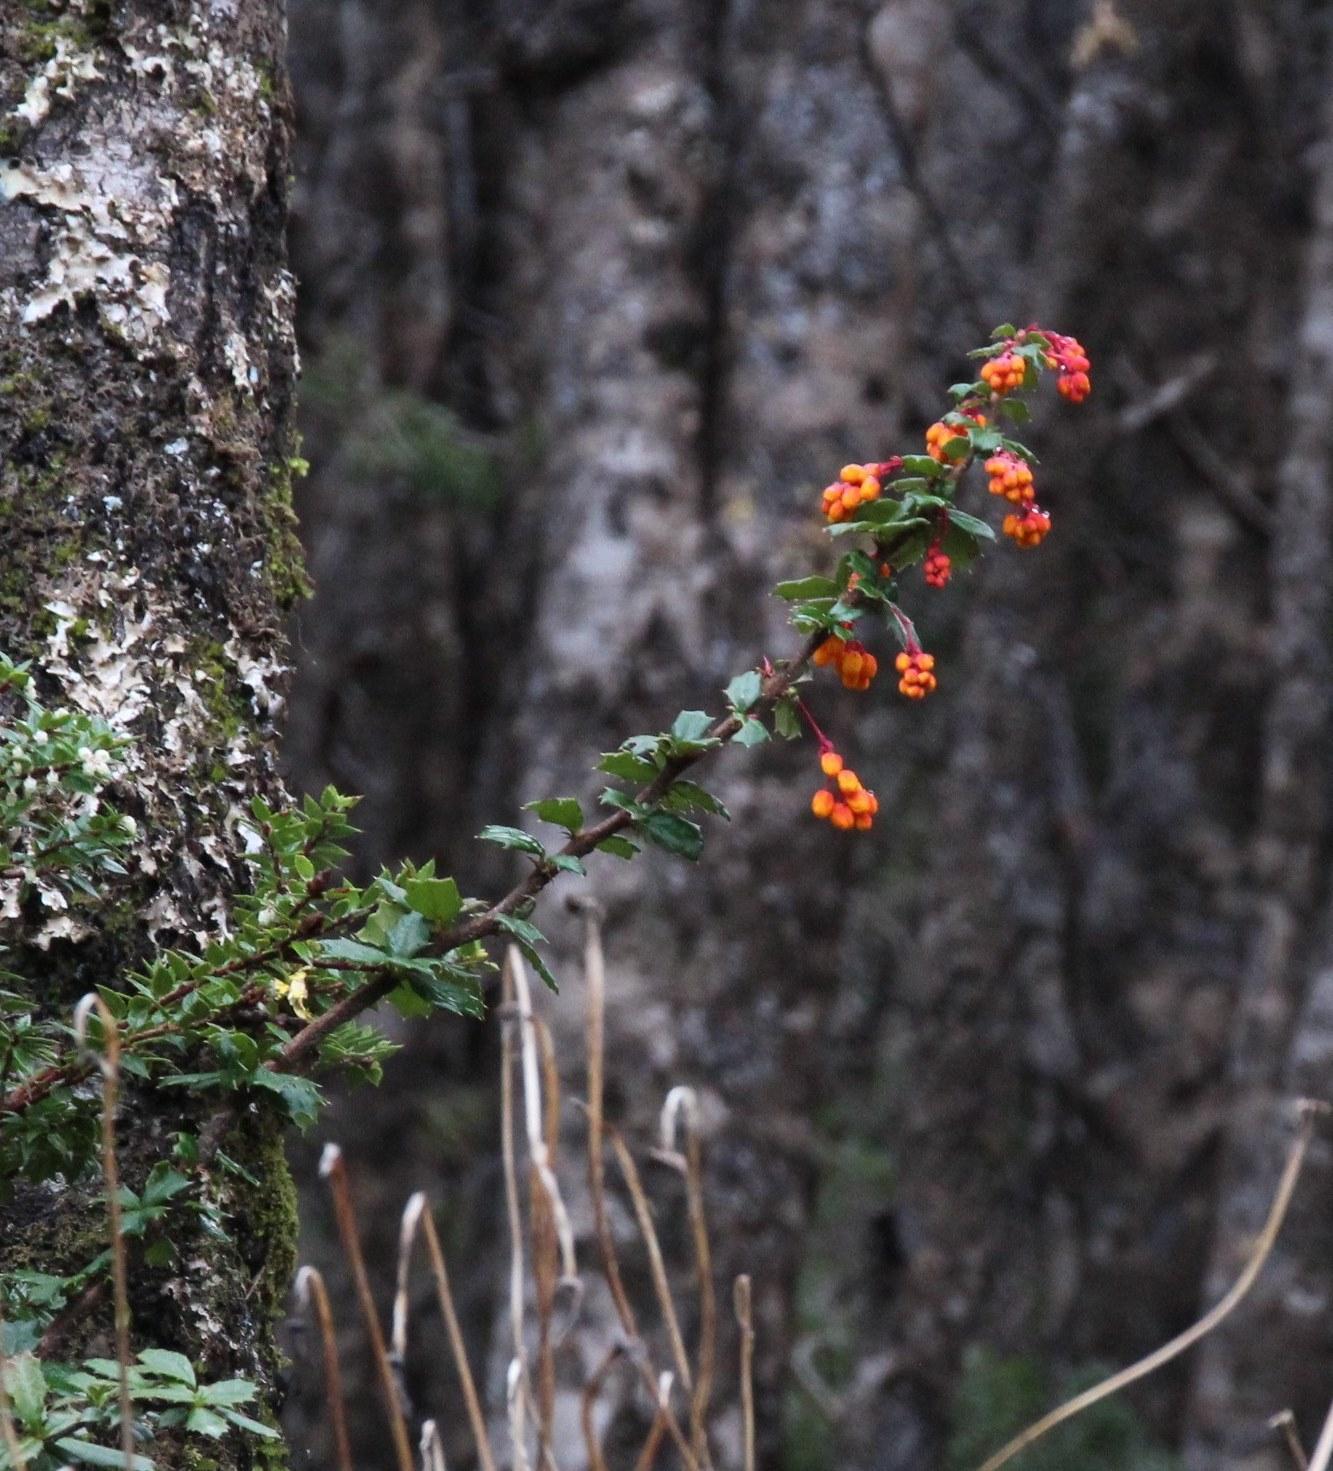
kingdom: Plantae
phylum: Tracheophyta
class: Magnoliopsida
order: Ranunculales
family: Berberidaceae
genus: Berberis
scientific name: Berberis darwinii
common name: Darwin's barberry
